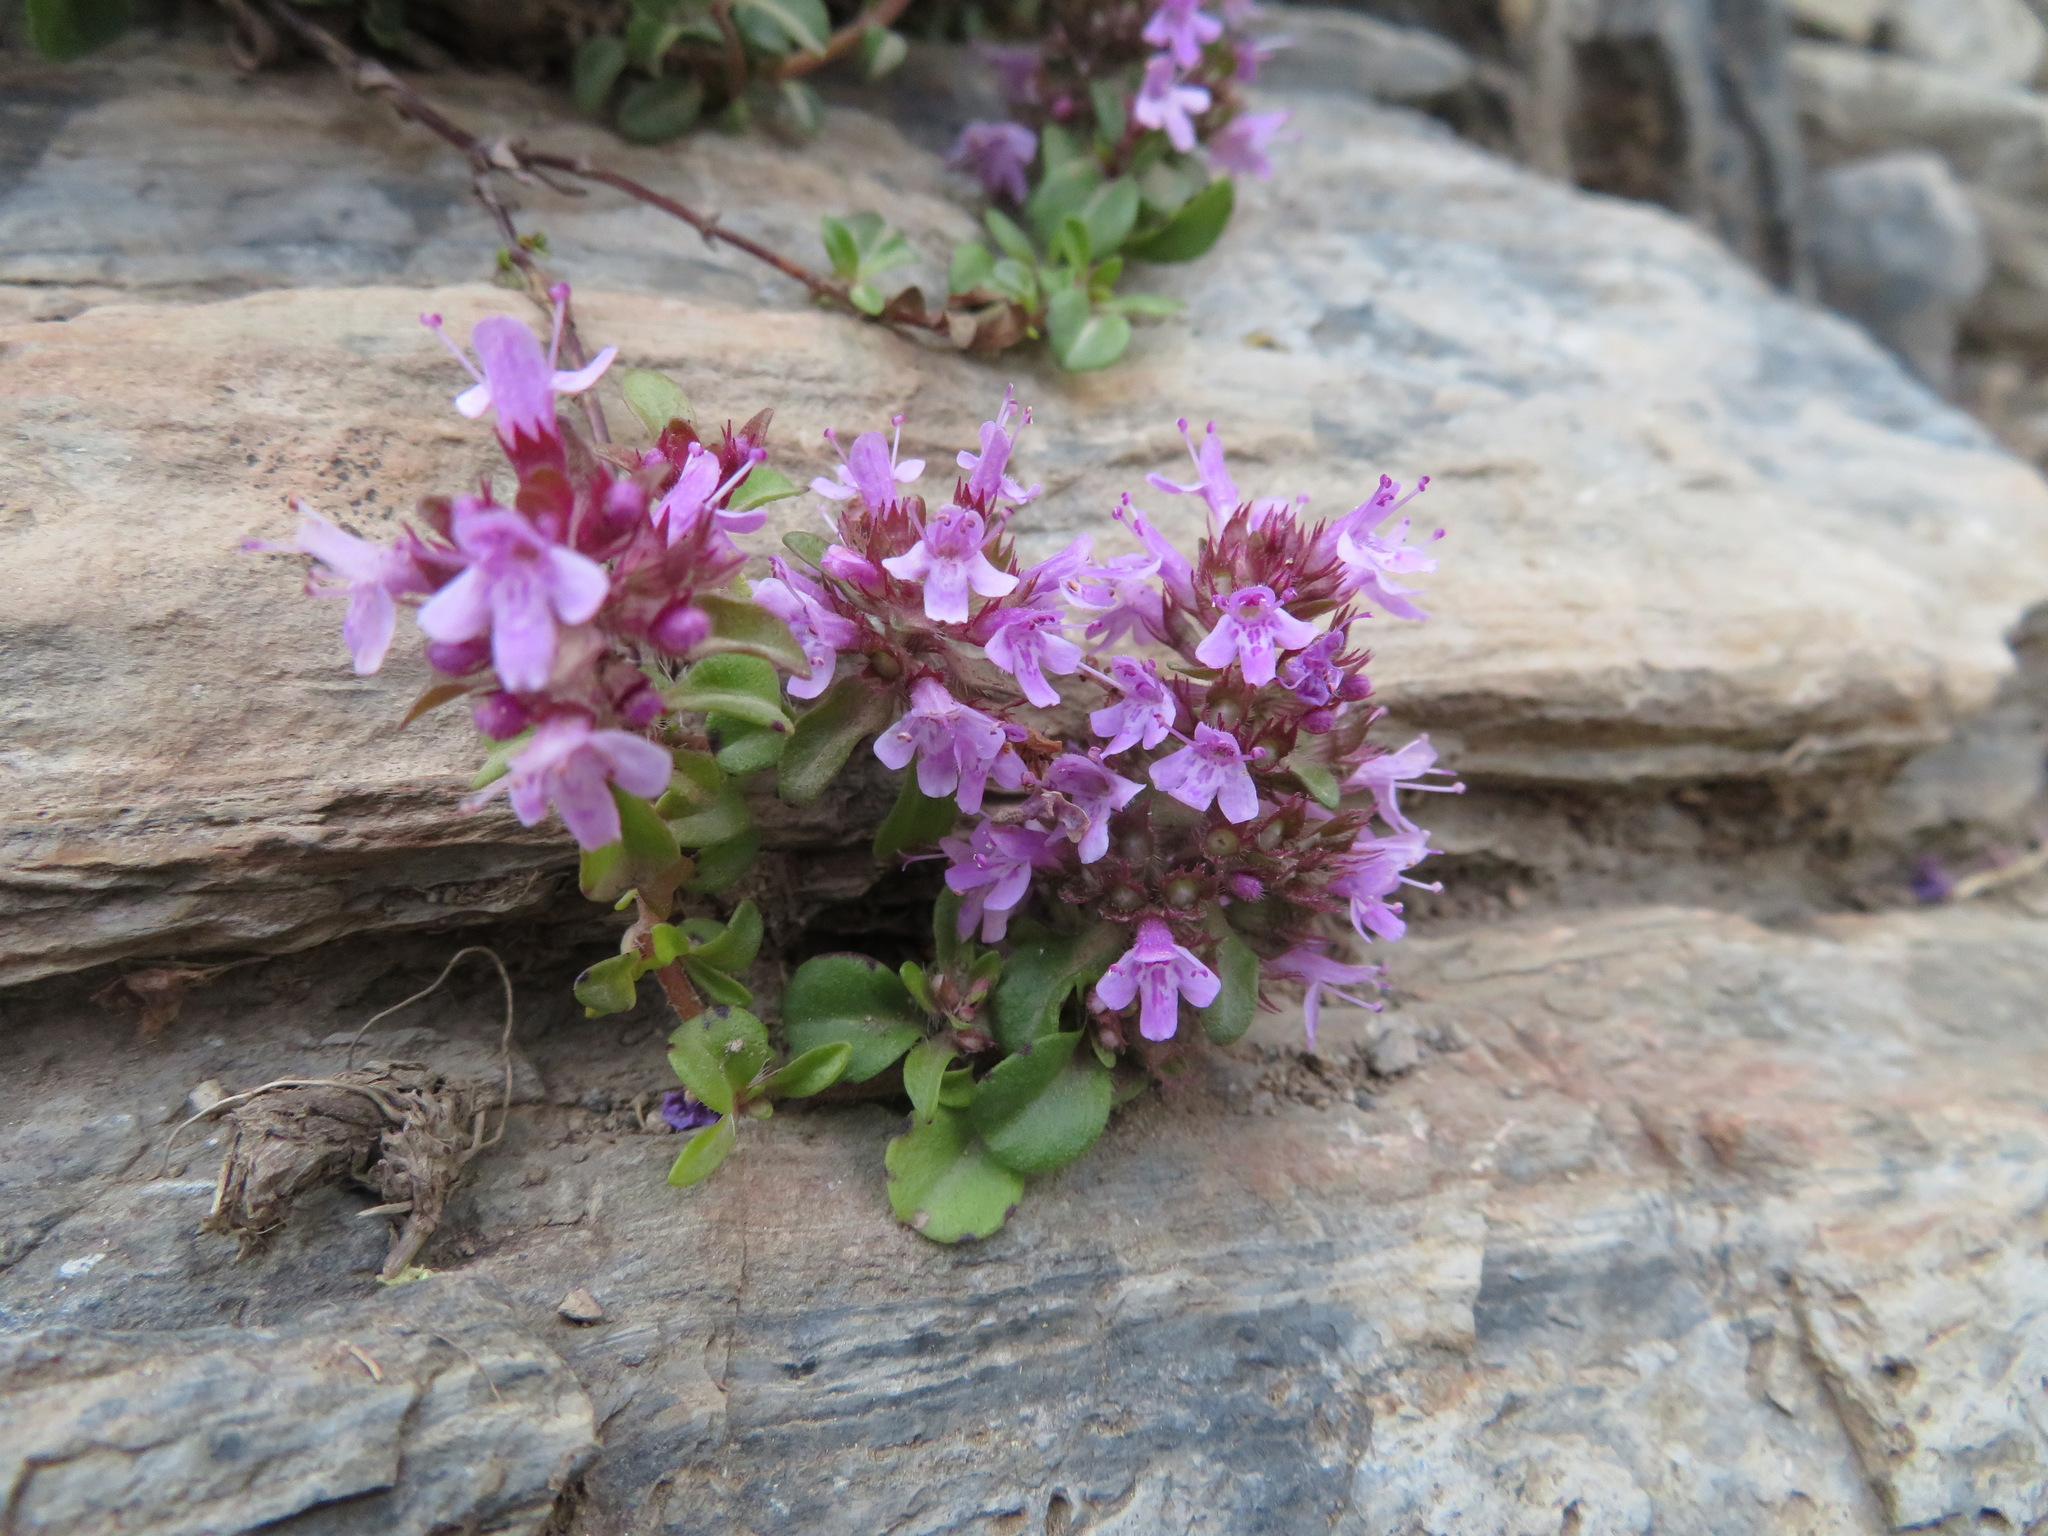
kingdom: Plantae
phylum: Tracheophyta
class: Magnoliopsida
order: Lamiales
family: Lamiaceae
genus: Thymus
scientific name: Thymus praecox
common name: Wild thyme
